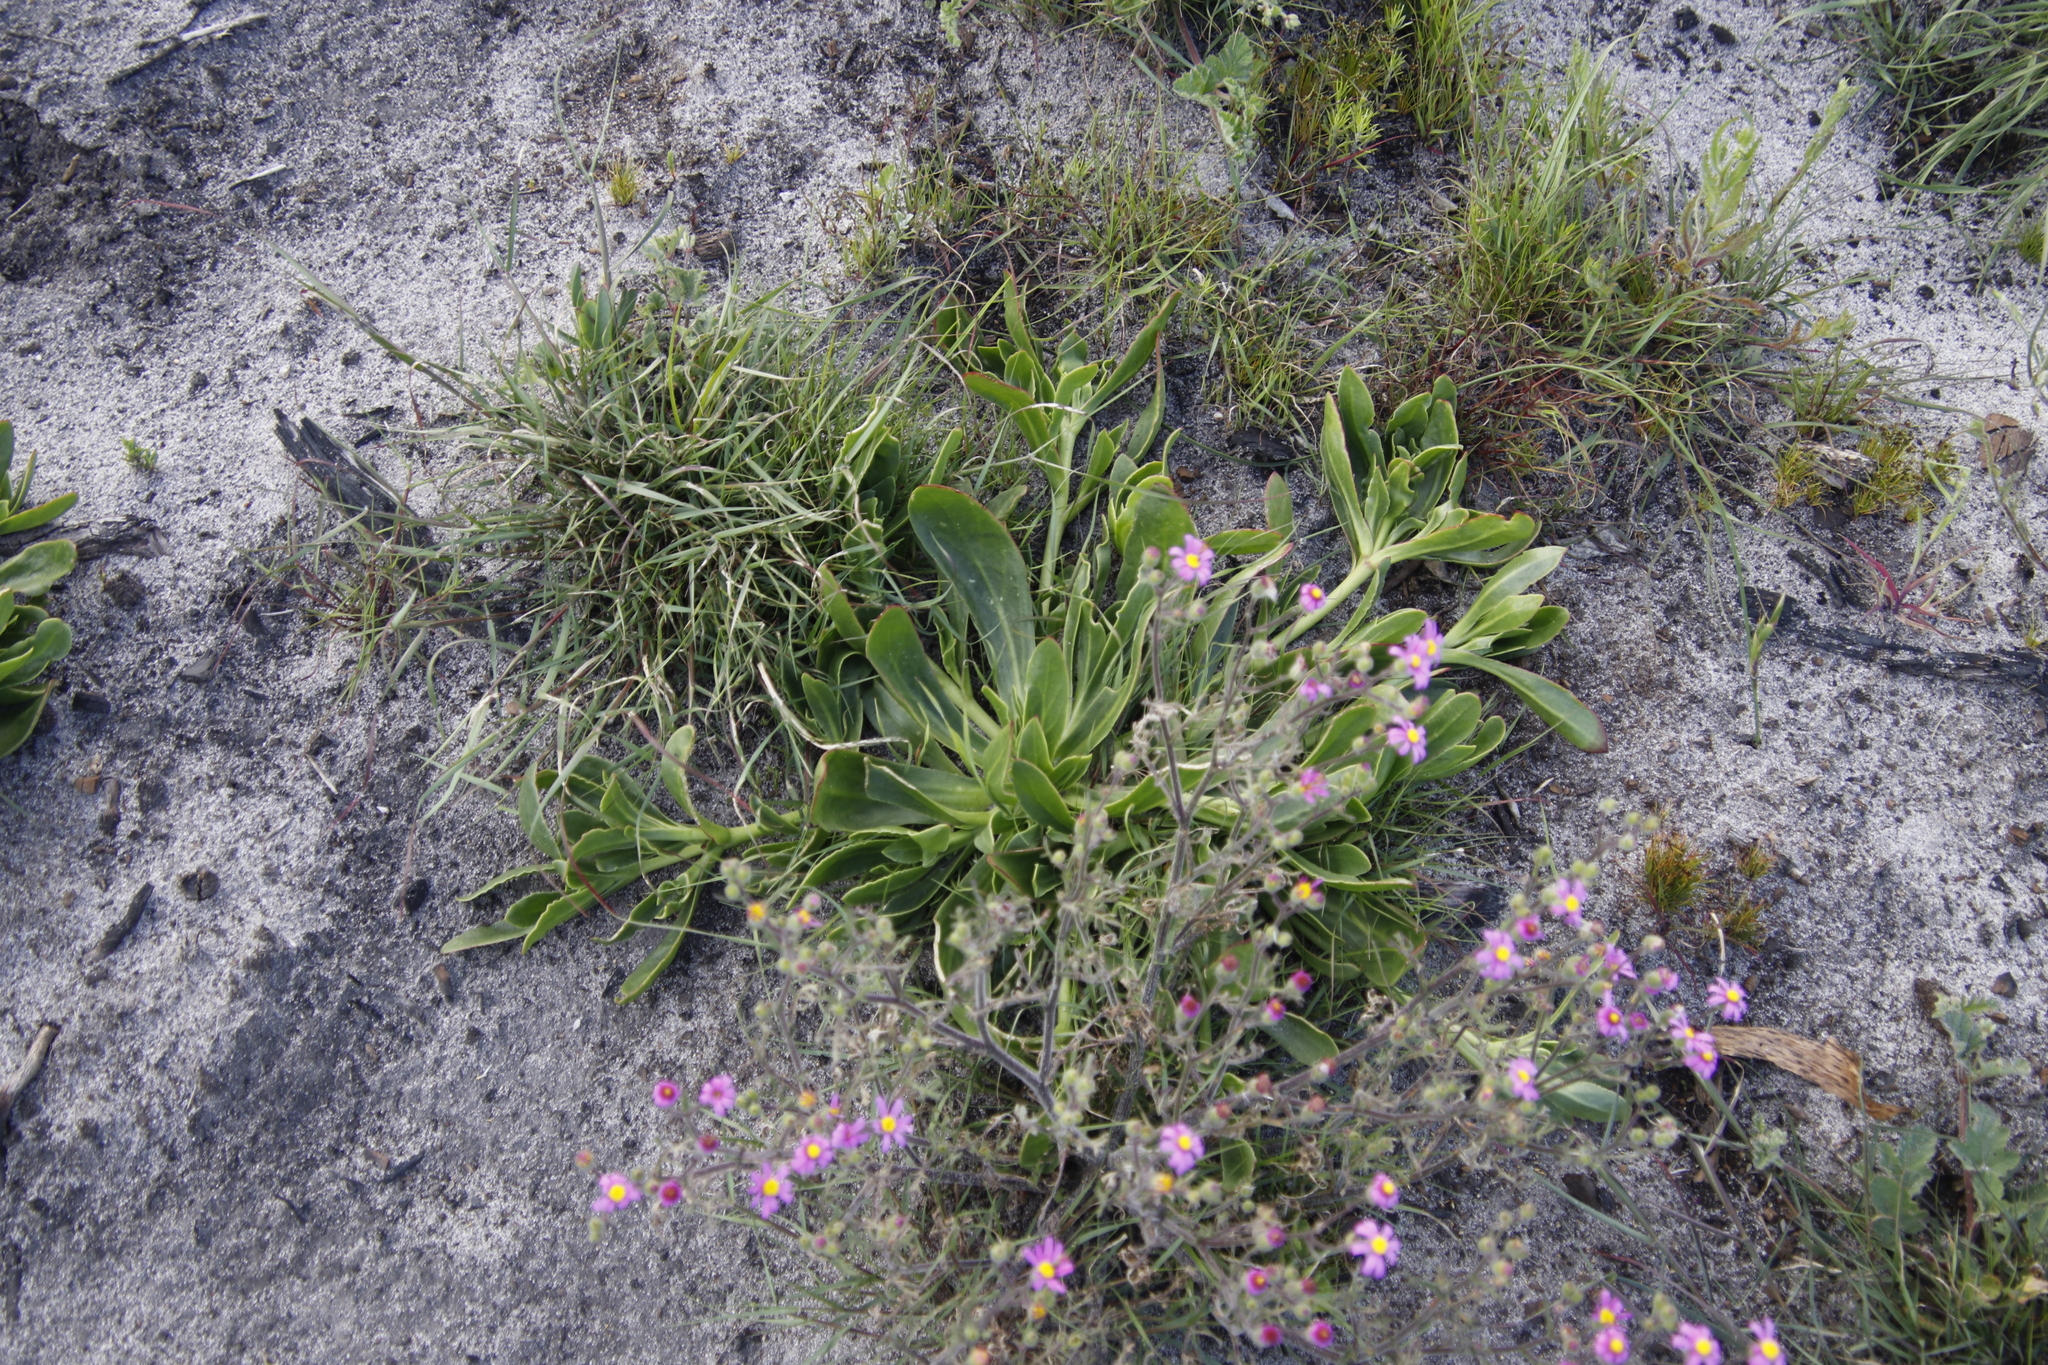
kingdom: Plantae
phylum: Tracheophyta
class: Magnoliopsida
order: Caryophyllales
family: Aizoaceae
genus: Skiatophytum
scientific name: Skiatophytum tripolium
